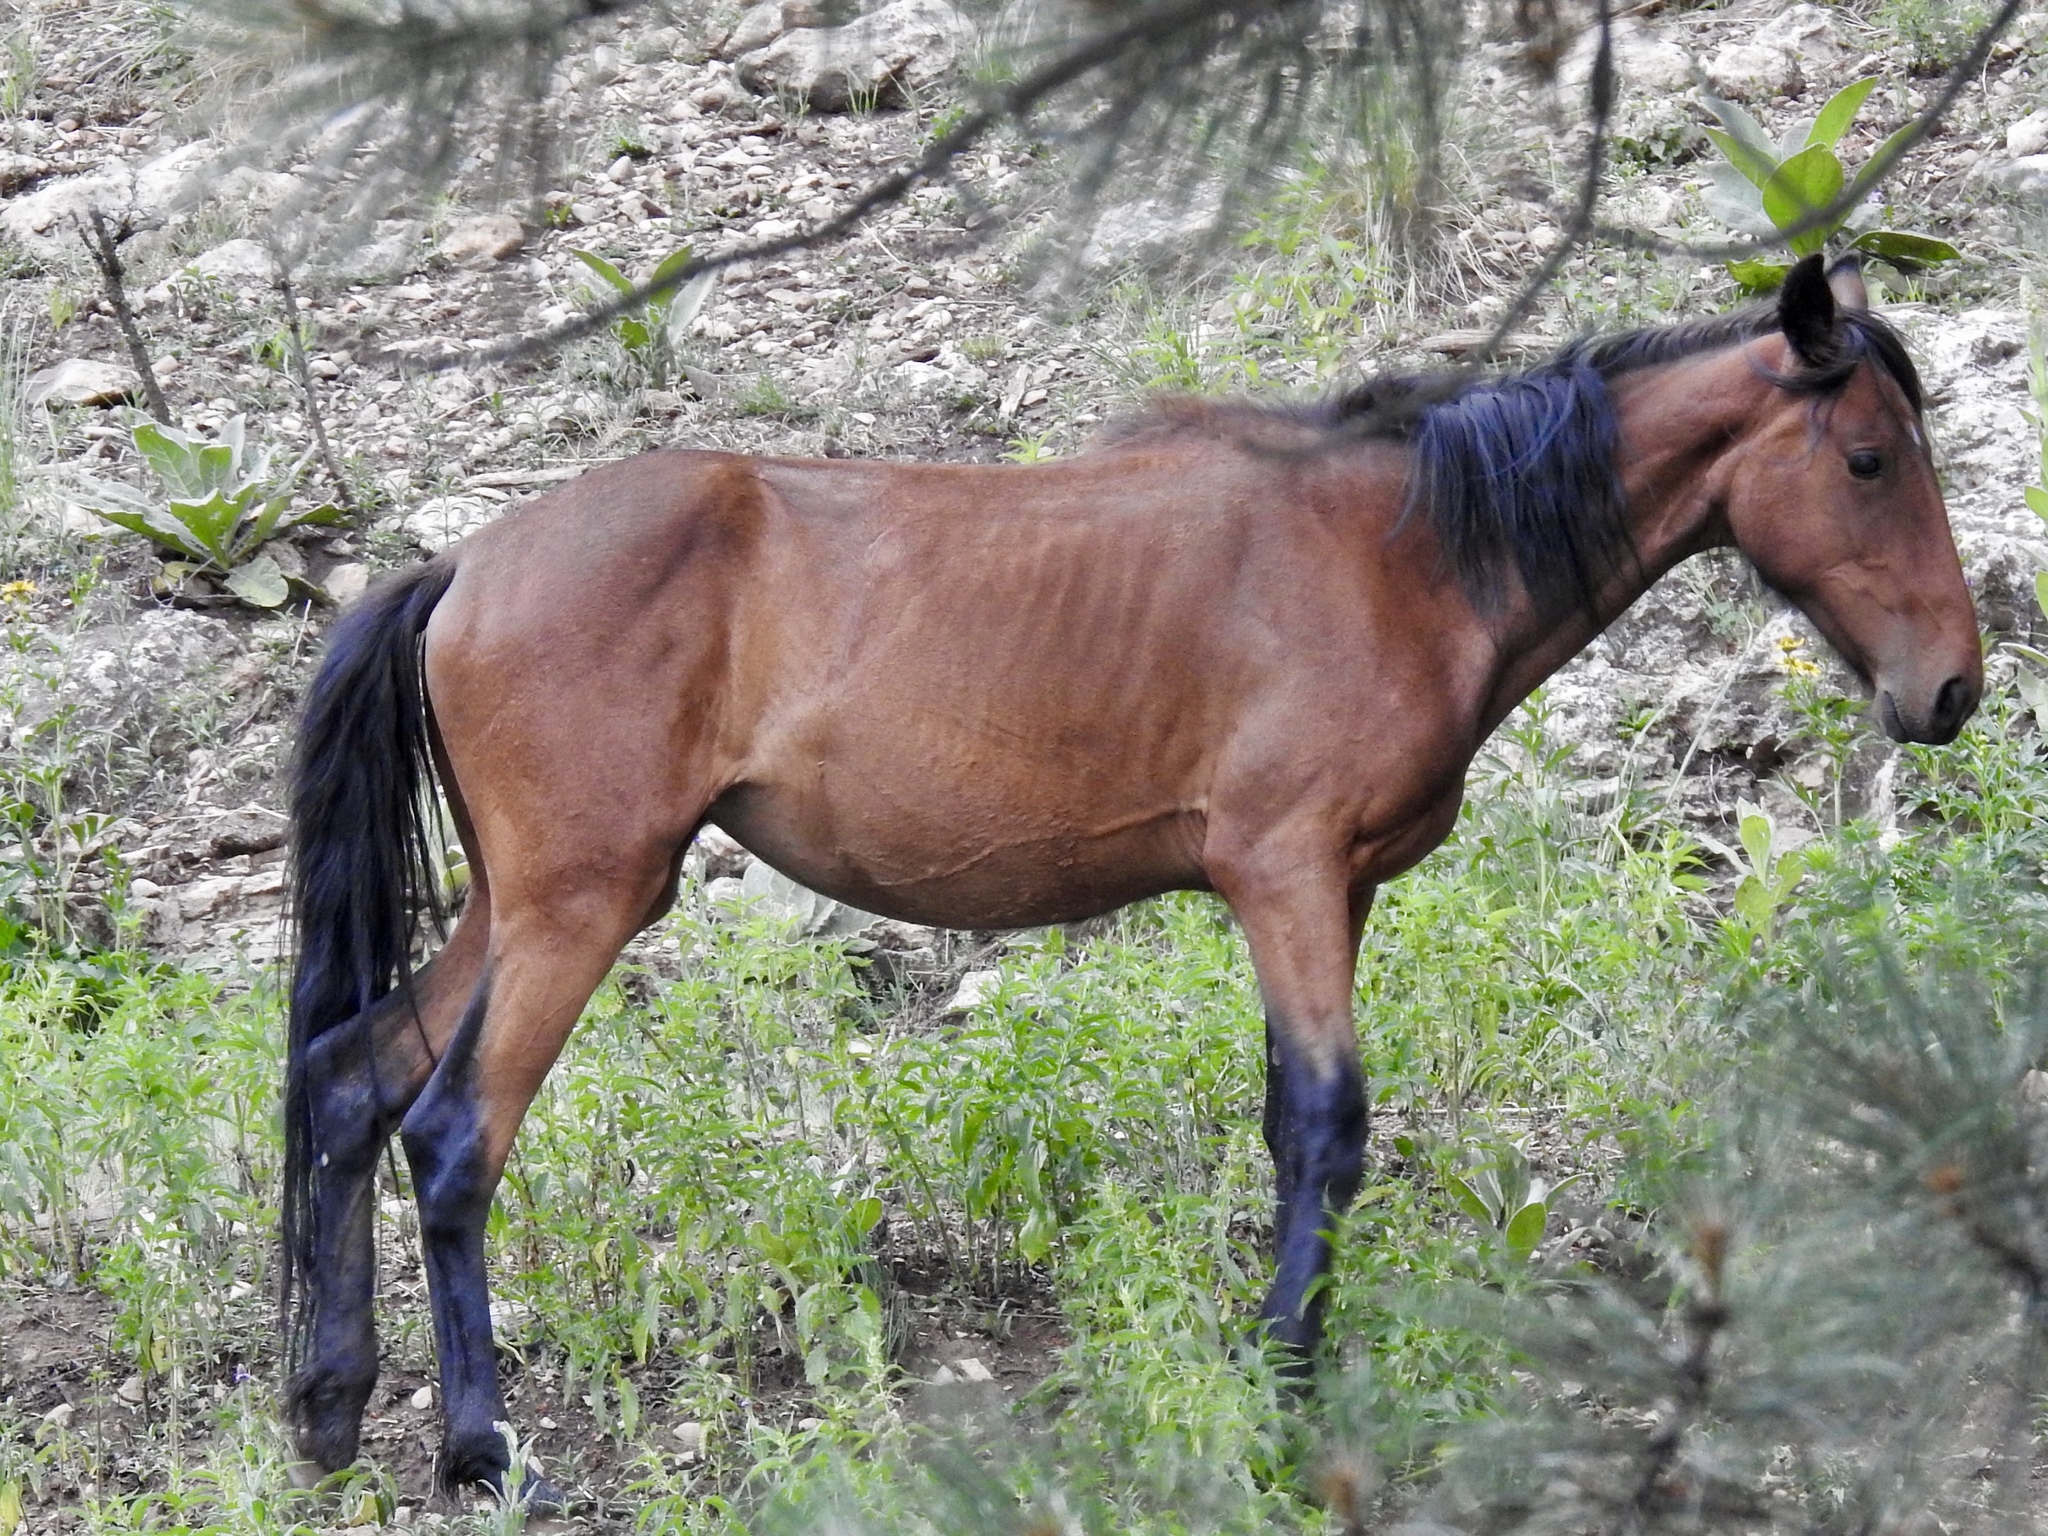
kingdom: Animalia
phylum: Chordata
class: Mammalia
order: Perissodactyla
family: Equidae
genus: Equus
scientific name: Equus caballus
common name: Horse
